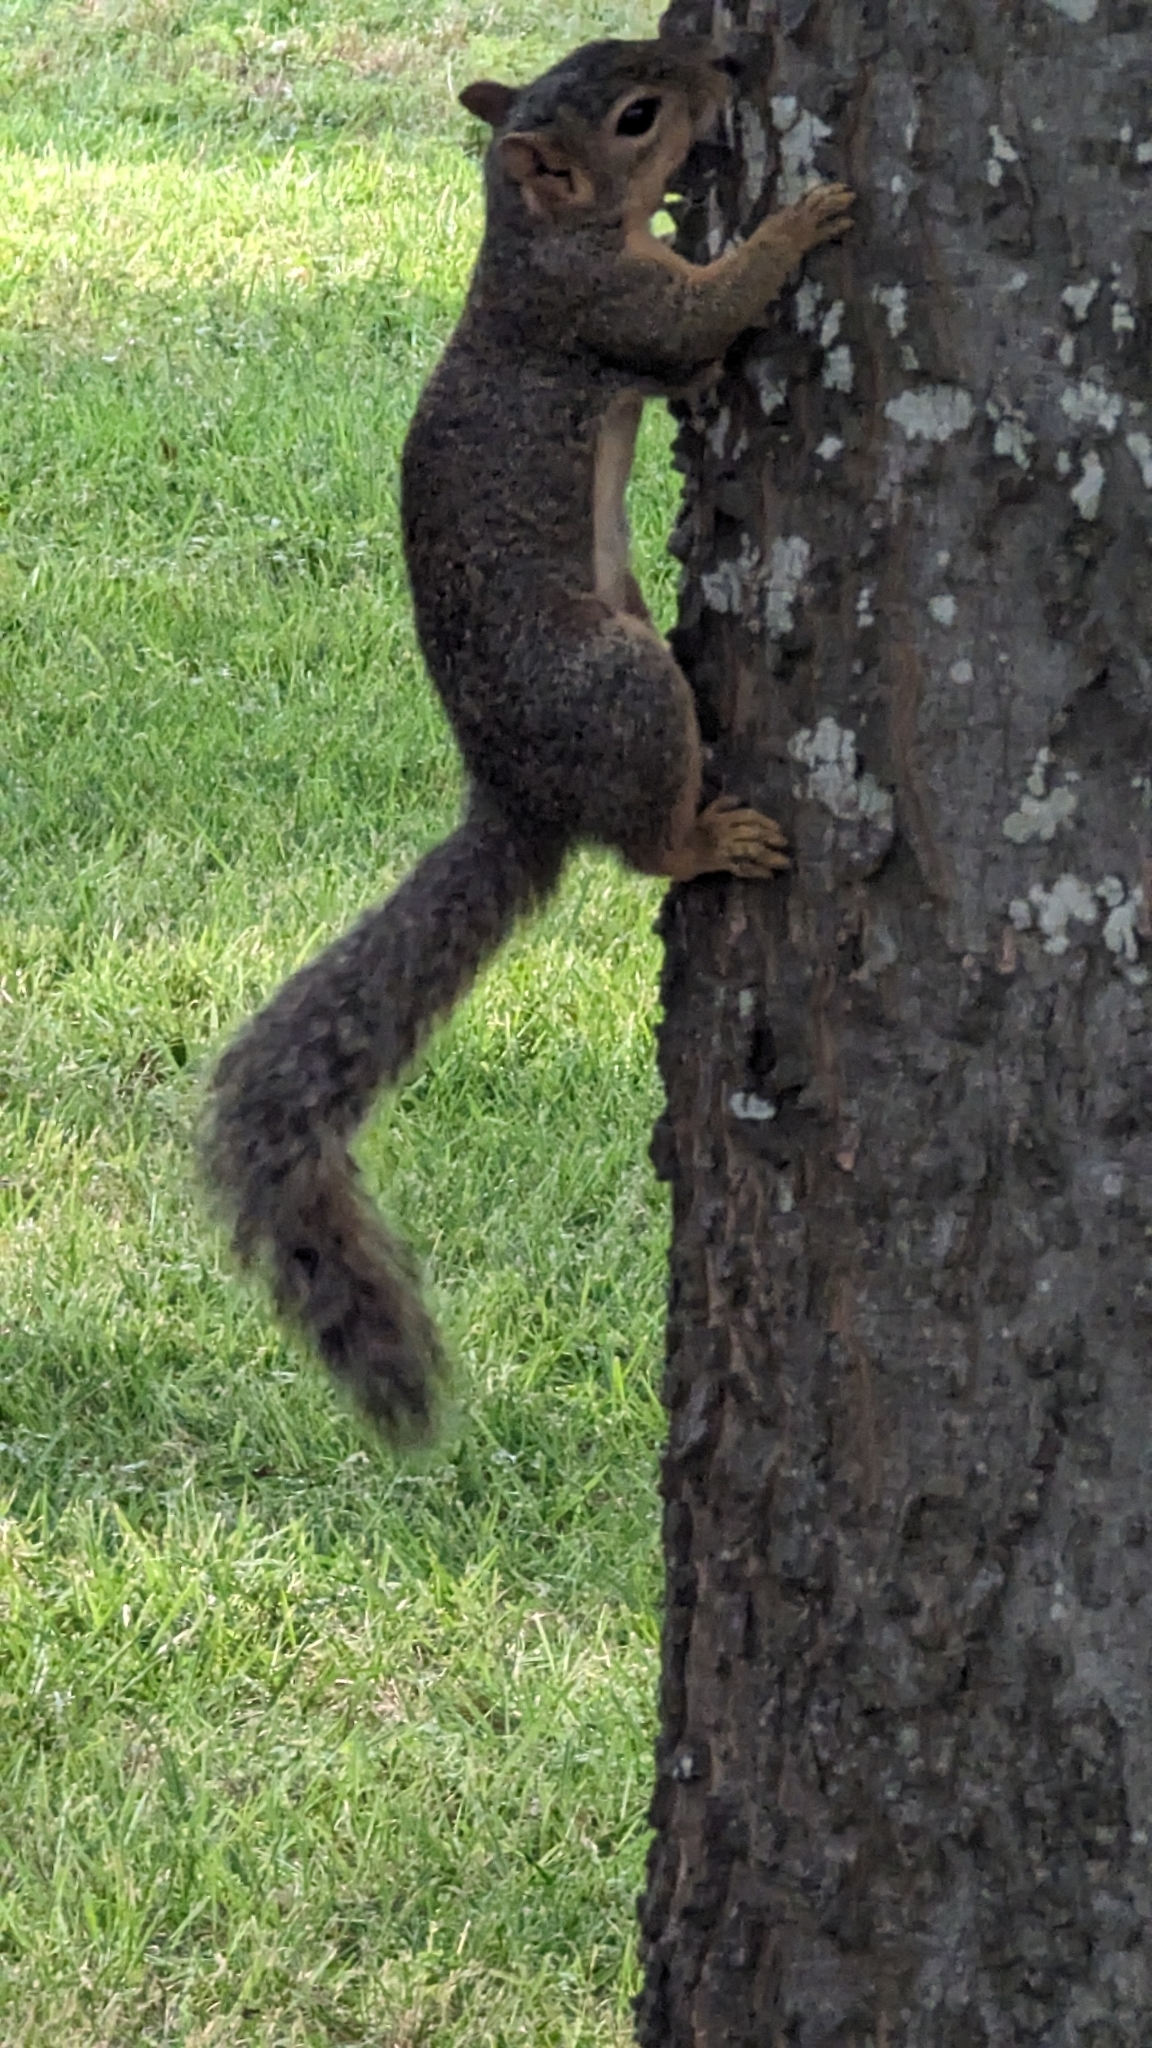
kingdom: Animalia
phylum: Chordata
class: Mammalia
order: Rodentia
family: Sciuridae
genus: Sciurus
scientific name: Sciurus niger
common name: Fox squirrel
